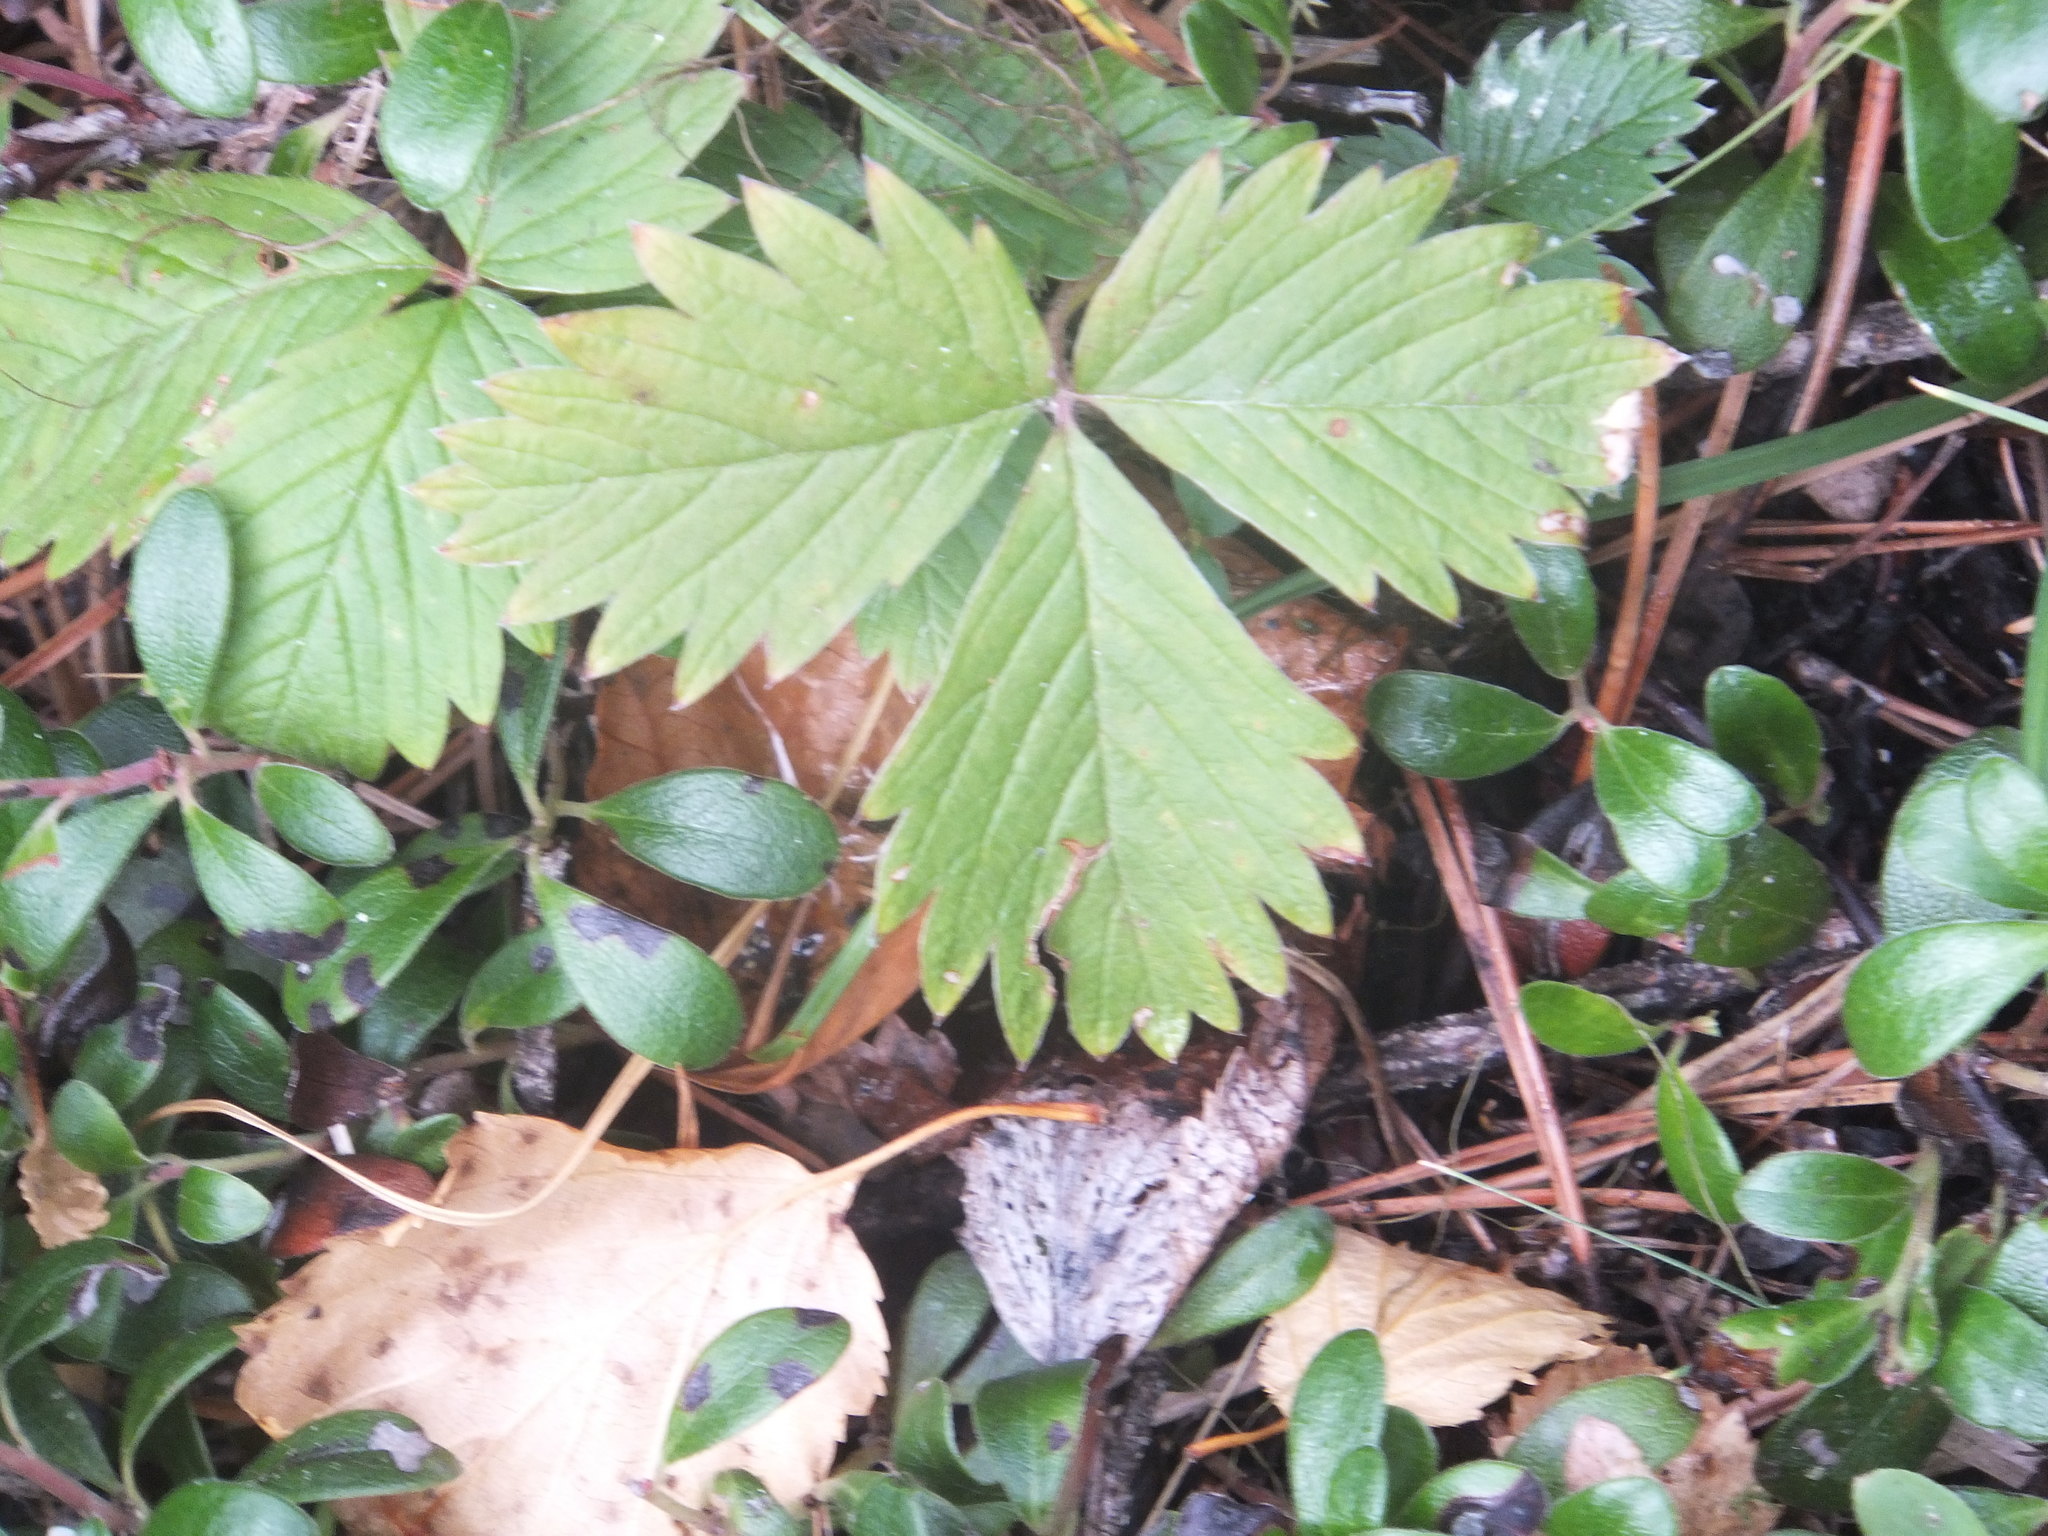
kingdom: Plantae
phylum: Tracheophyta
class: Magnoliopsida
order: Rosales
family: Rosaceae
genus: Fragaria
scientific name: Fragaria vesca
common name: Wild strawberry
